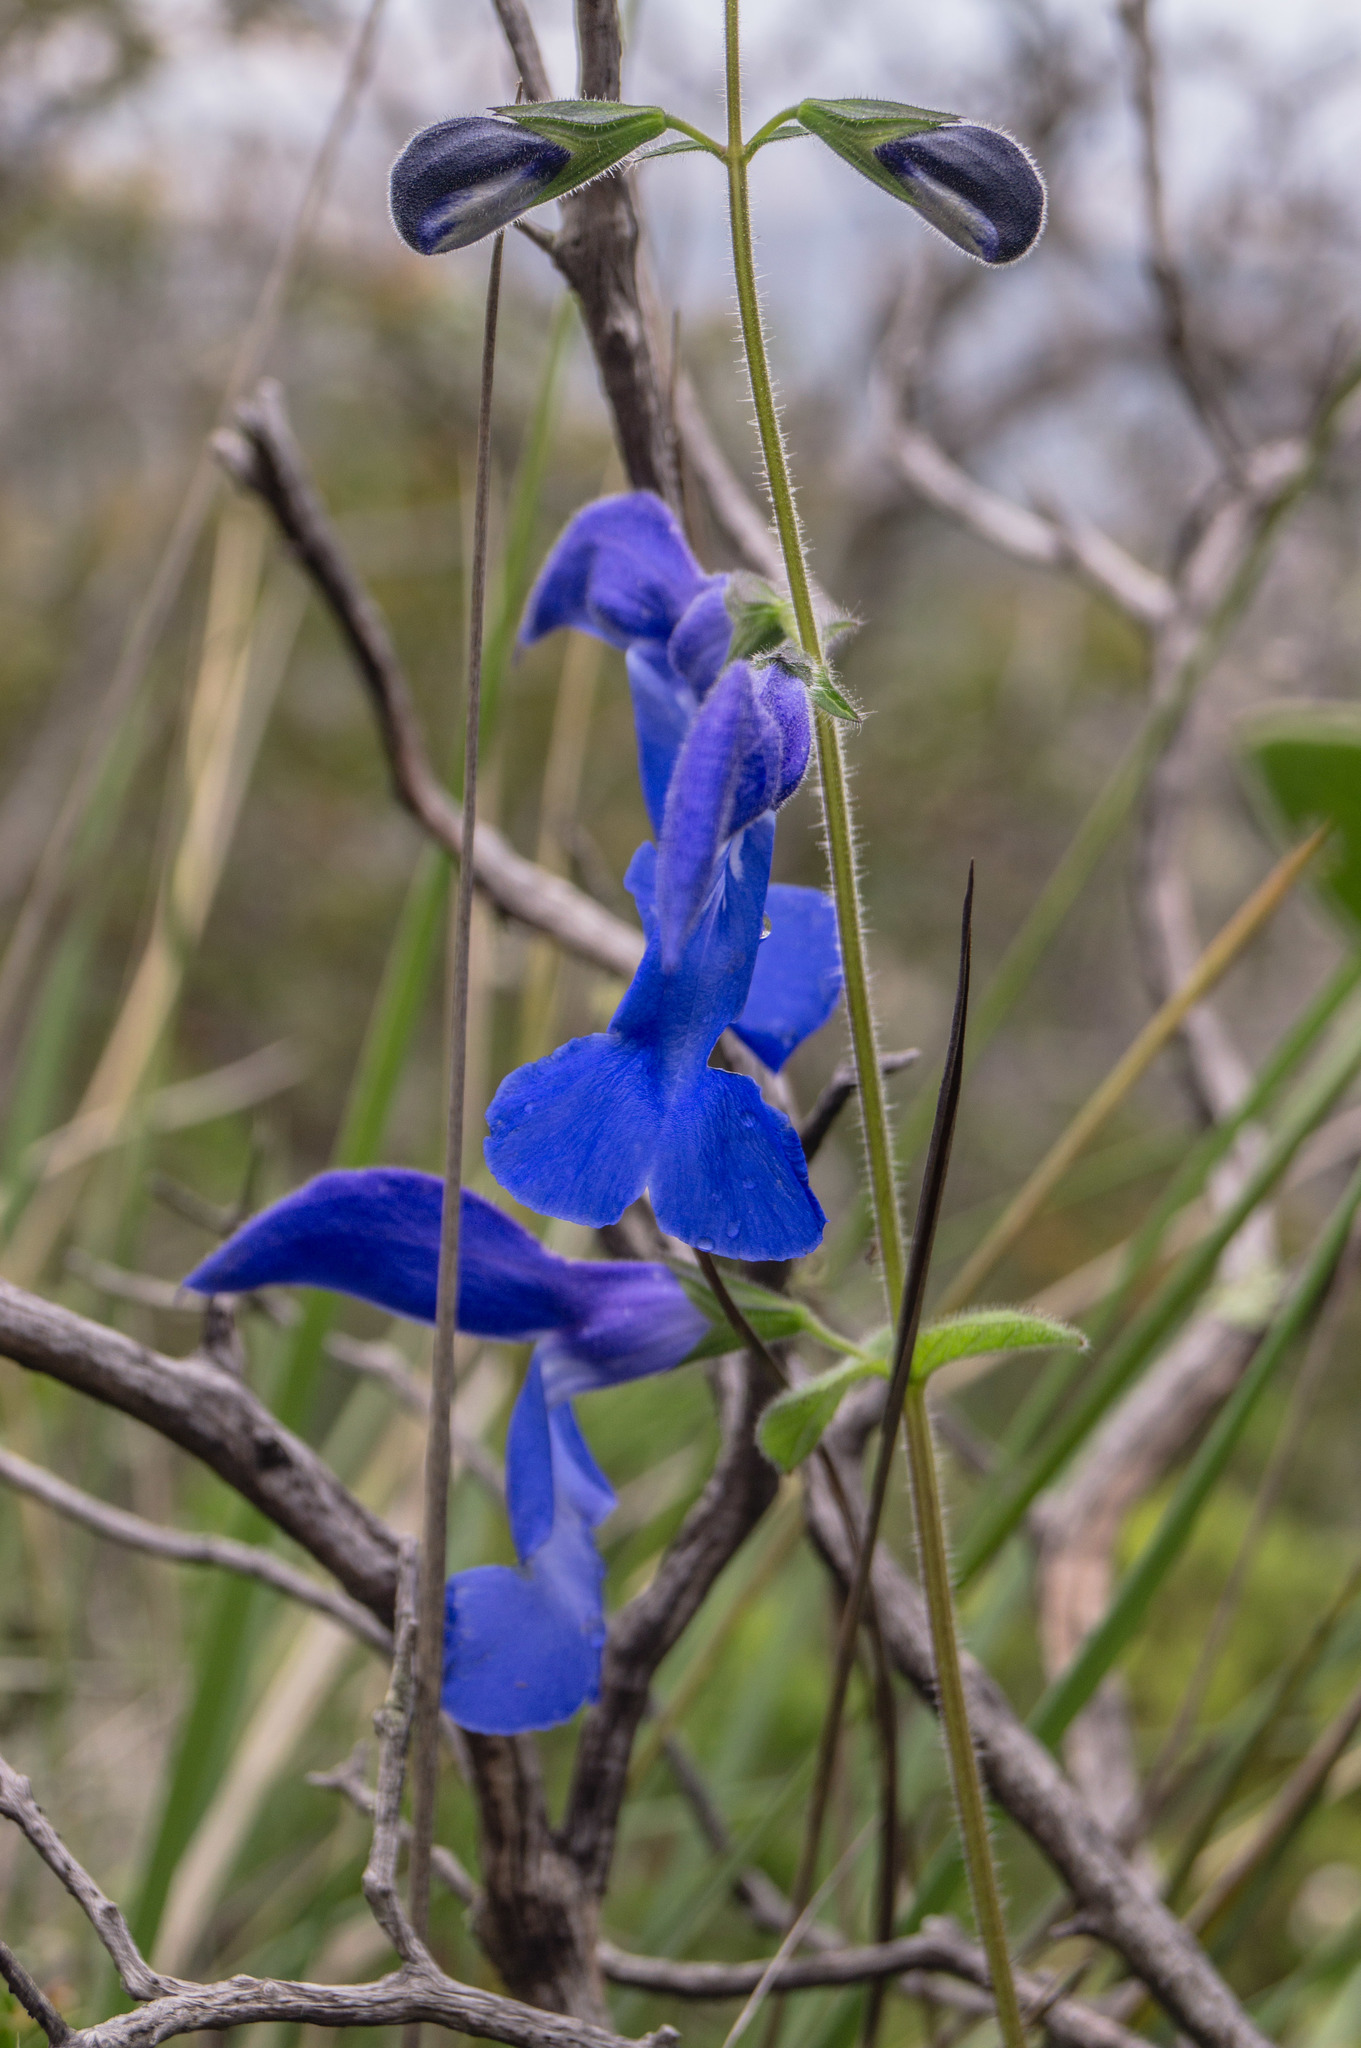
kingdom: Plantae
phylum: Tracheophyta
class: Magnoliopsida
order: Lamiales
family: Lamiaceae
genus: Salvia
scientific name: Salvia patens
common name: Blue sage
